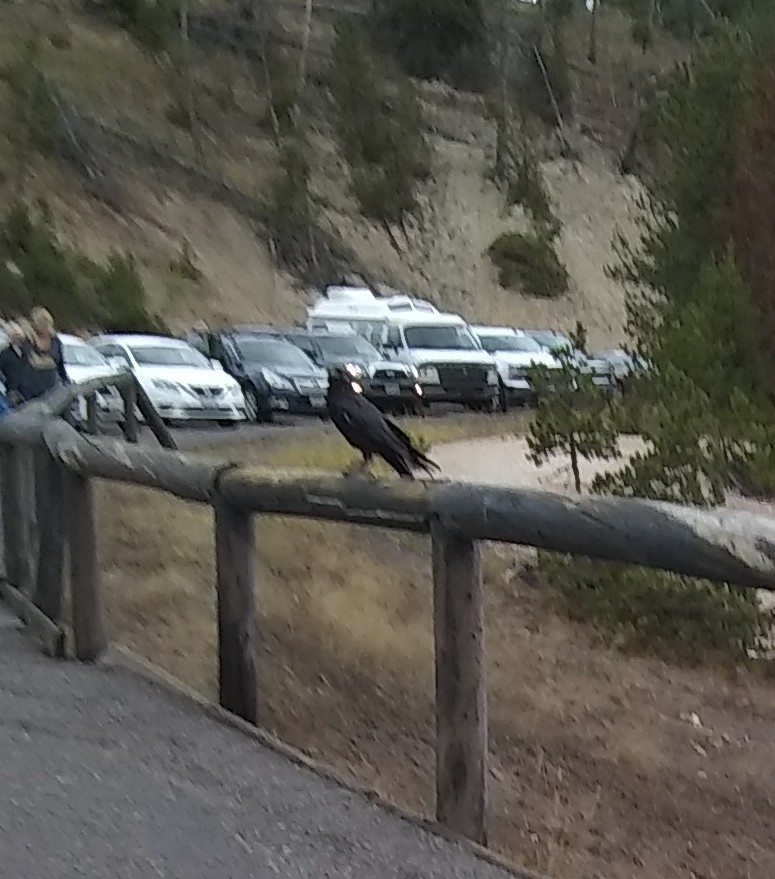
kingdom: Animalia
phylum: Chordata
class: Aves
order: Passeriformes
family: Corvidae
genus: Corvus
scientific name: Corvus corax
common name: Common raven
